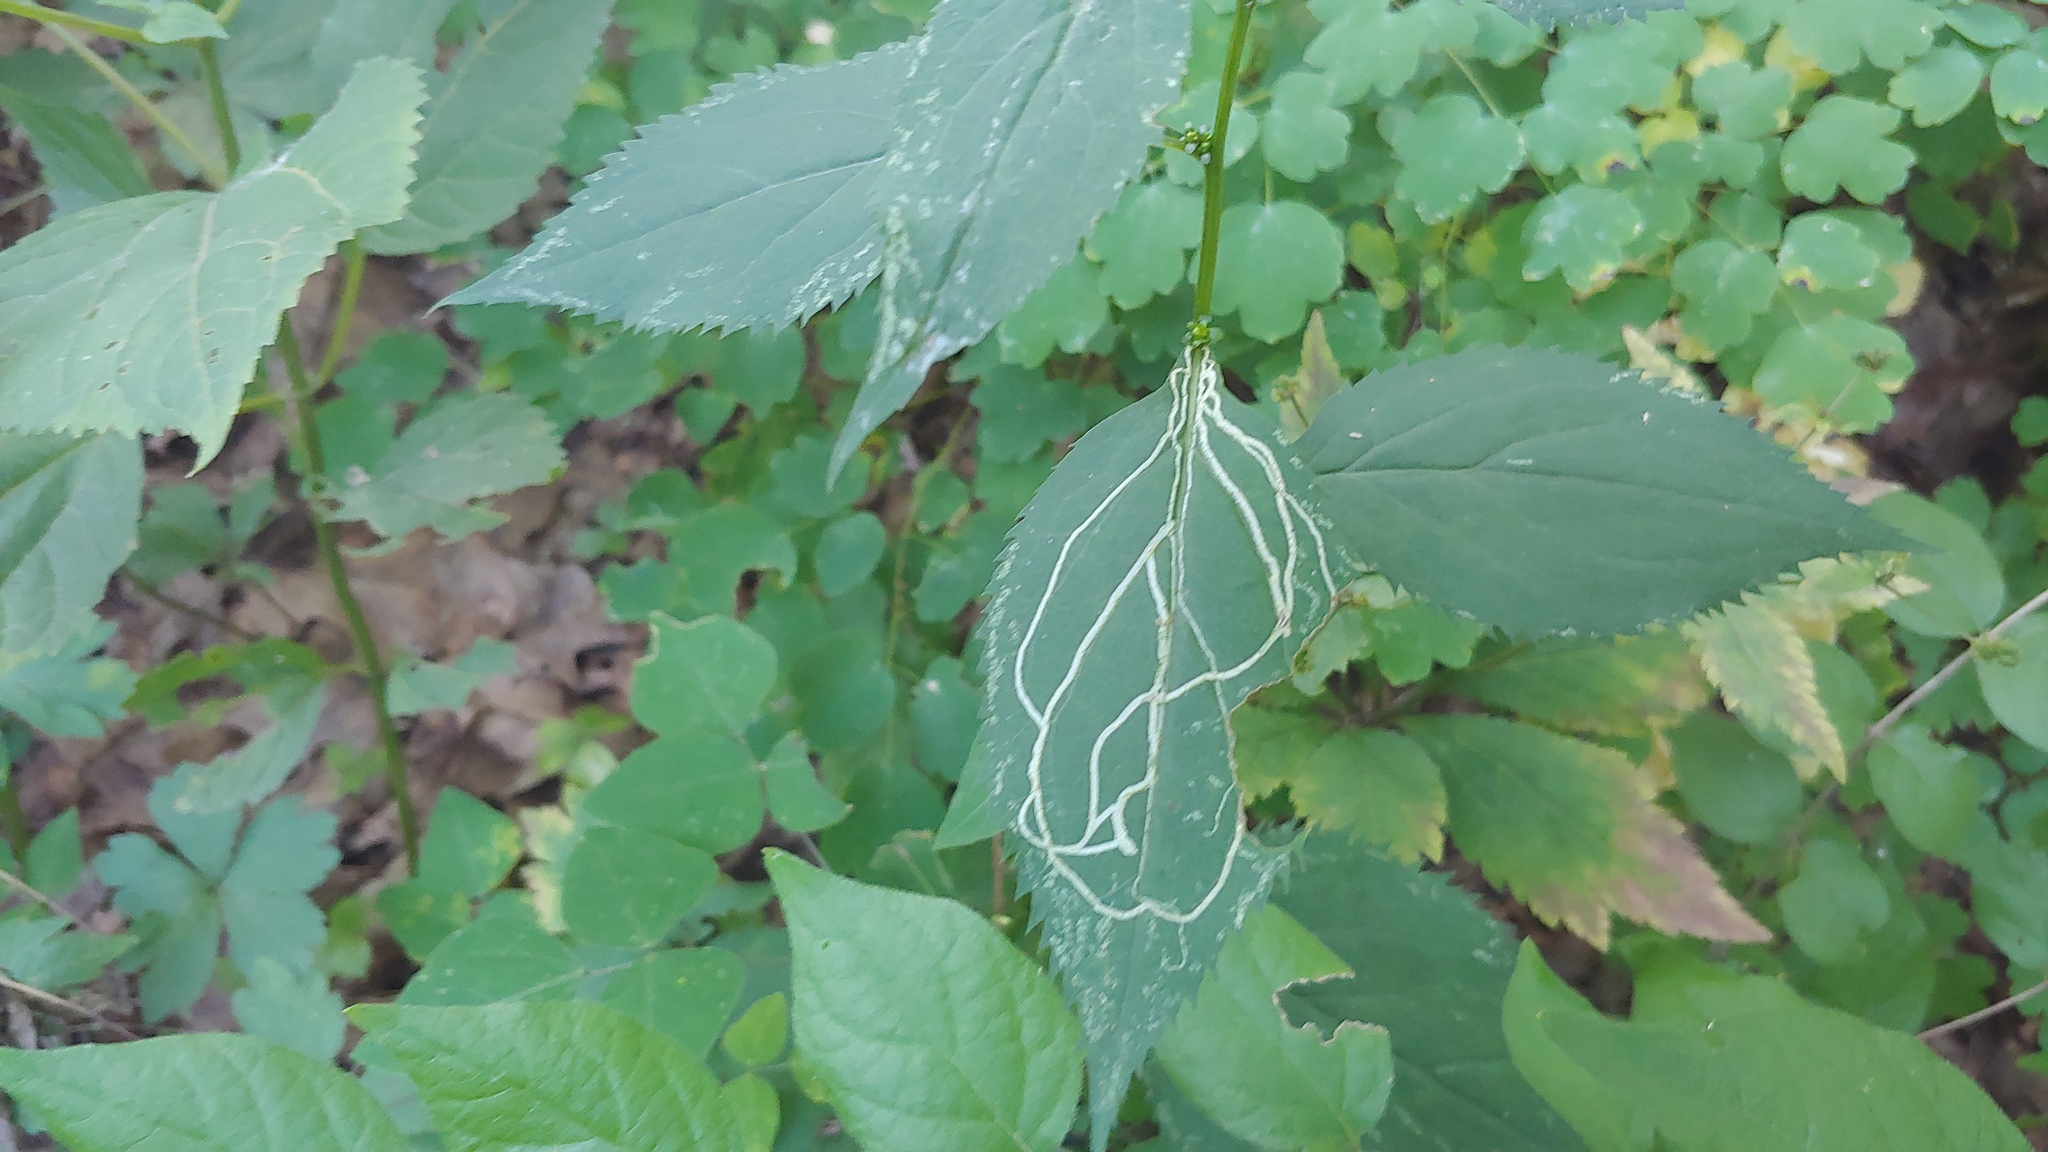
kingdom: Animalia
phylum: Arthropoda
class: Insecta
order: Diptera
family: Agromyzidae
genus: Ophiomyia
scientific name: Ophiomyia maura
